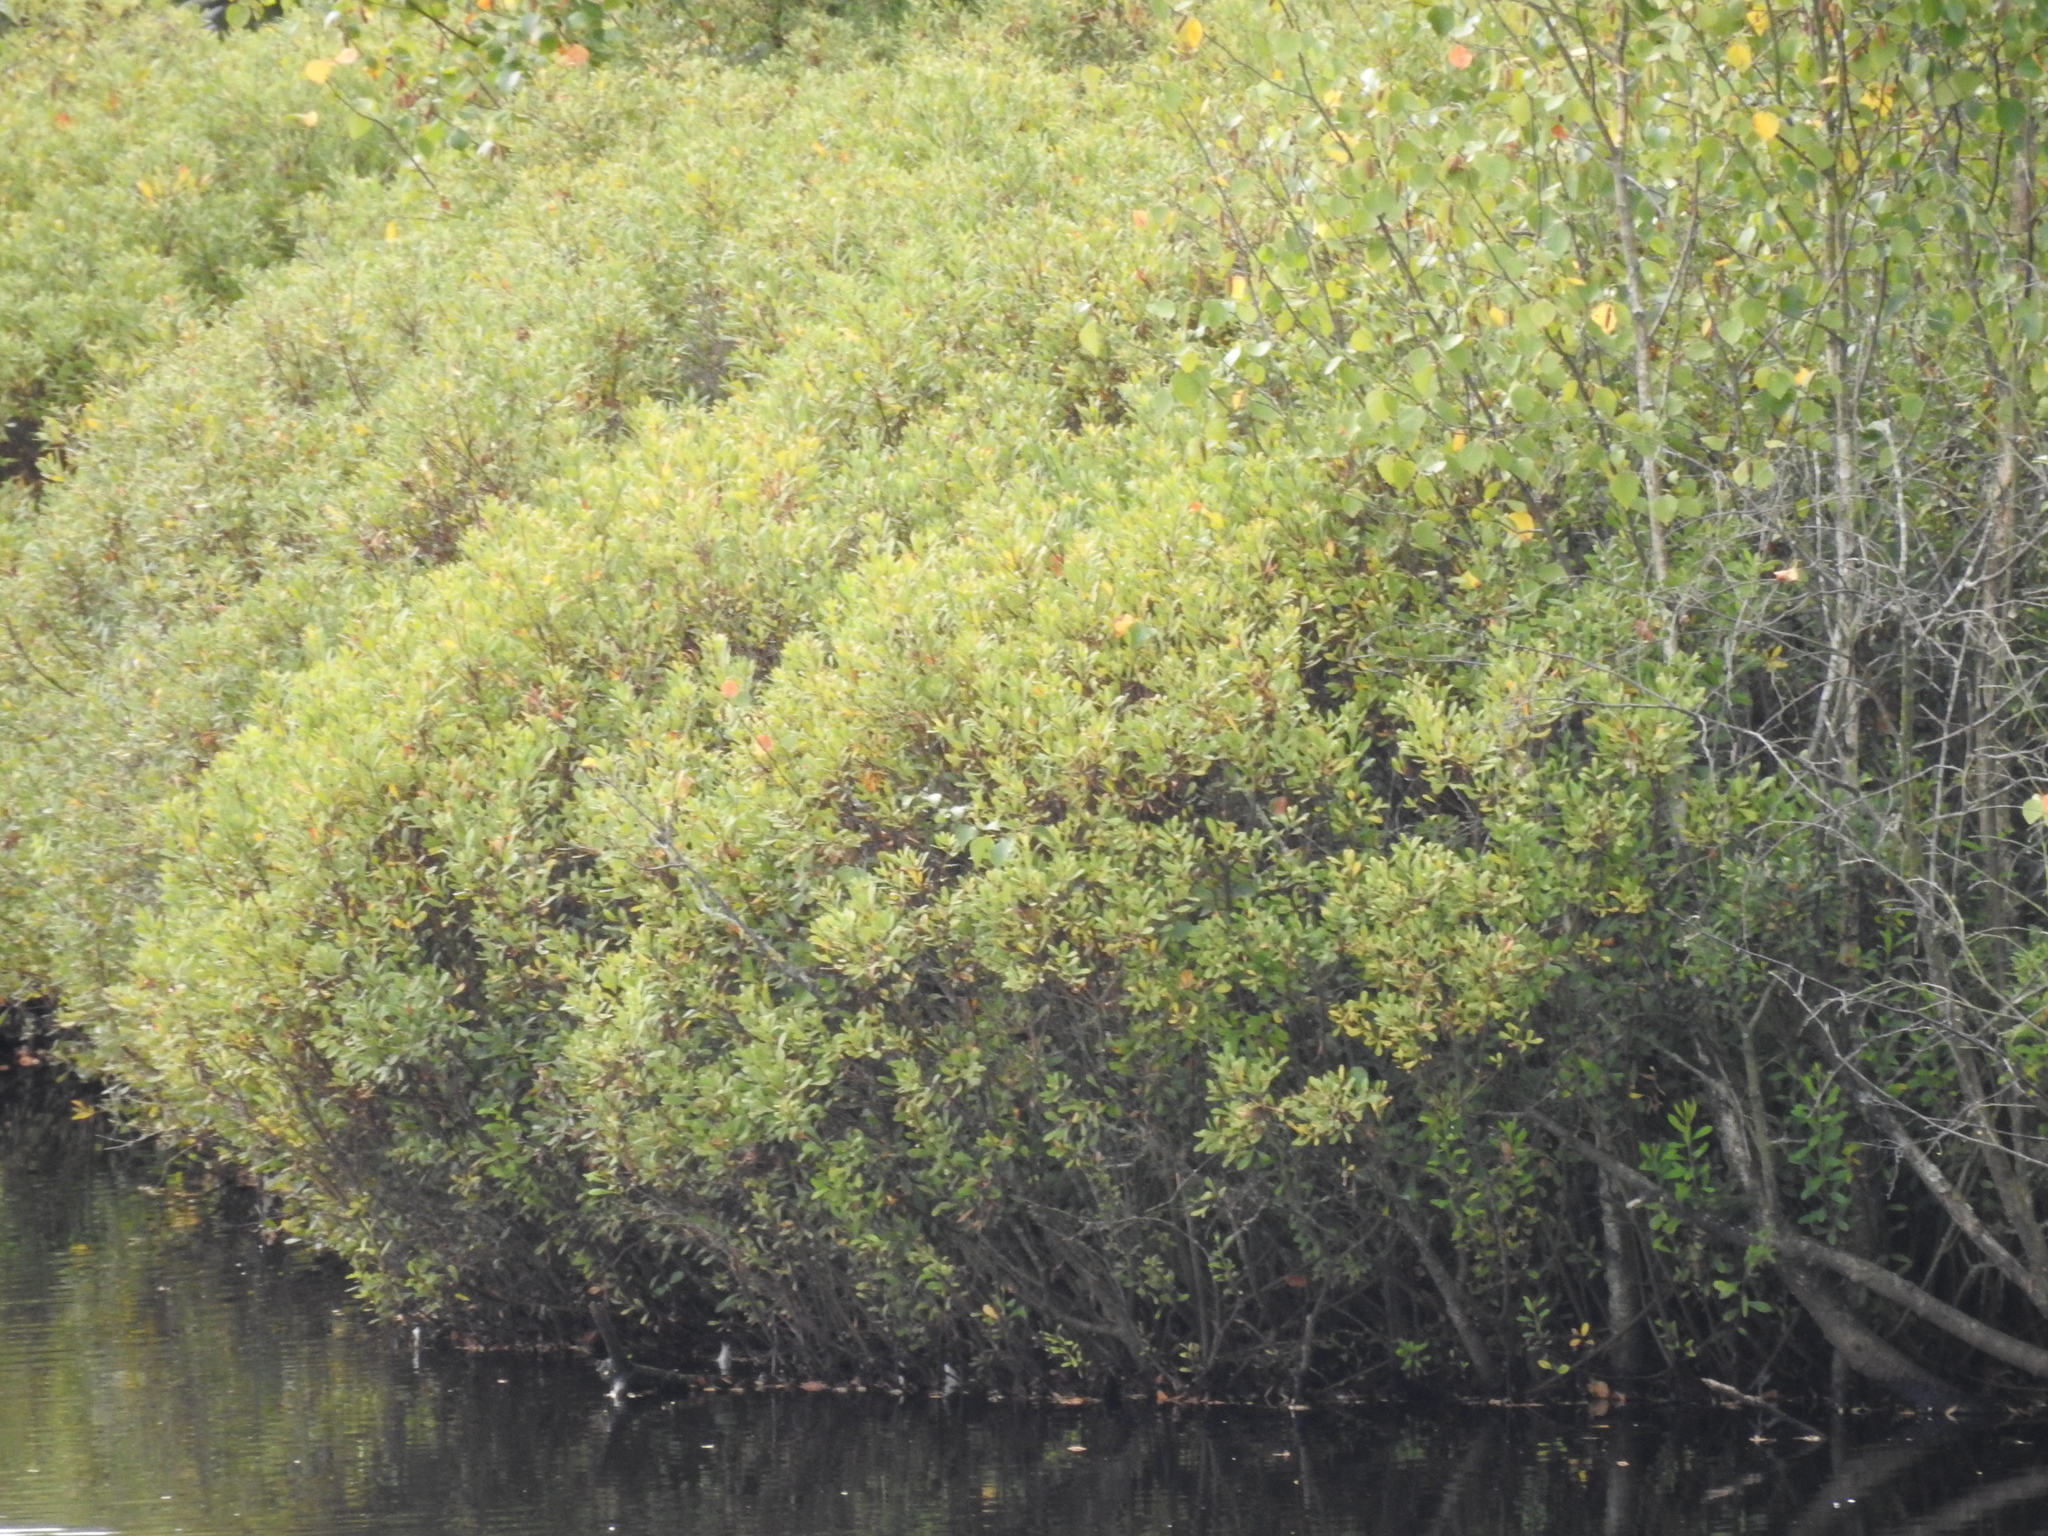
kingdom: Plantae
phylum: Tracheophyta
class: Magnoliopsida
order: Fagales
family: Myricaceae
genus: Myrica
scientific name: Myrica gale
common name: Sweet gale
